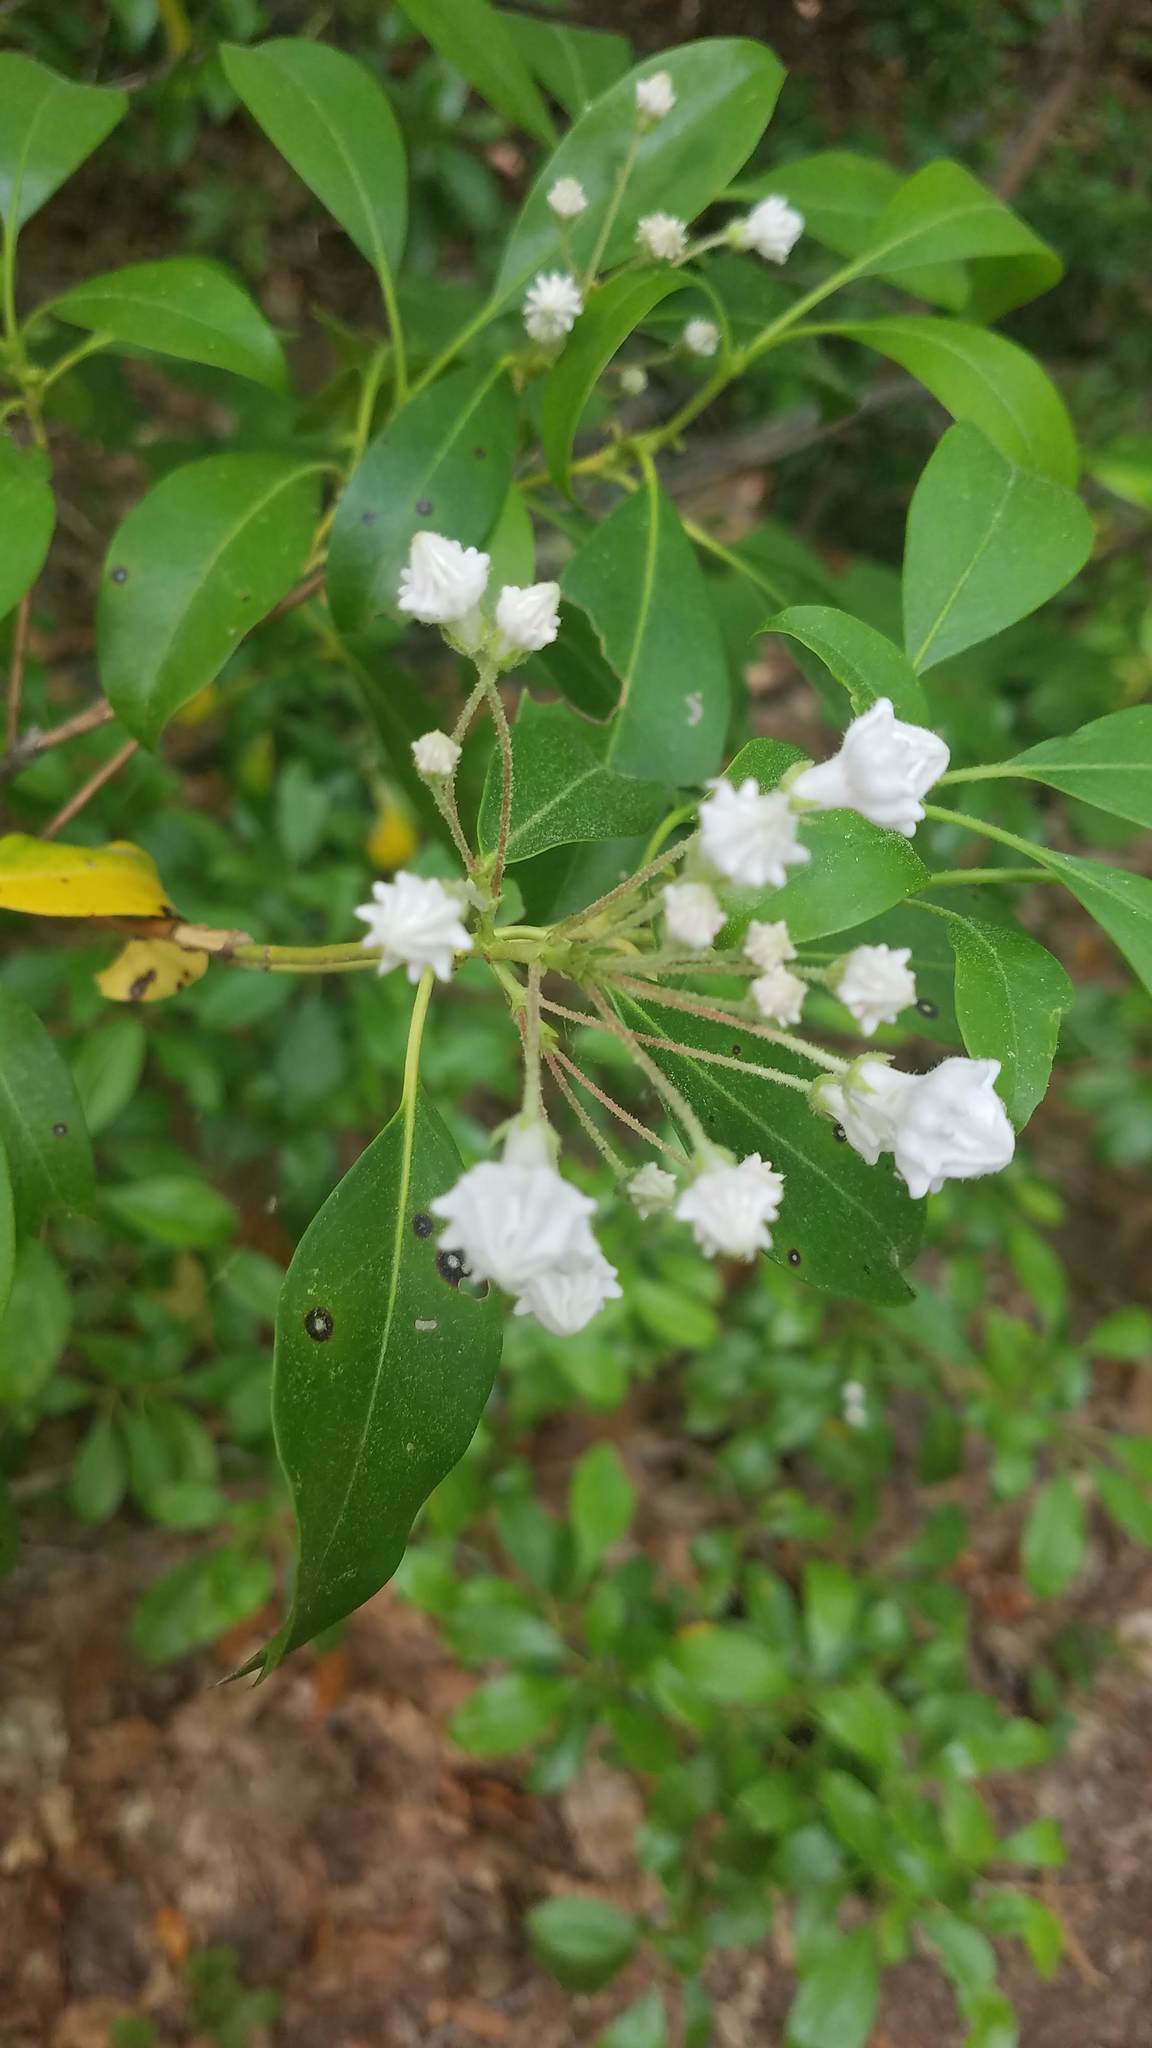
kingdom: Plantae
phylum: Tracheophyta
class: Magnoliopsida
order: Ericales
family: Ericaceae
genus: Kalmia
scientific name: Kalmia latifolia
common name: Mountain-laurel
